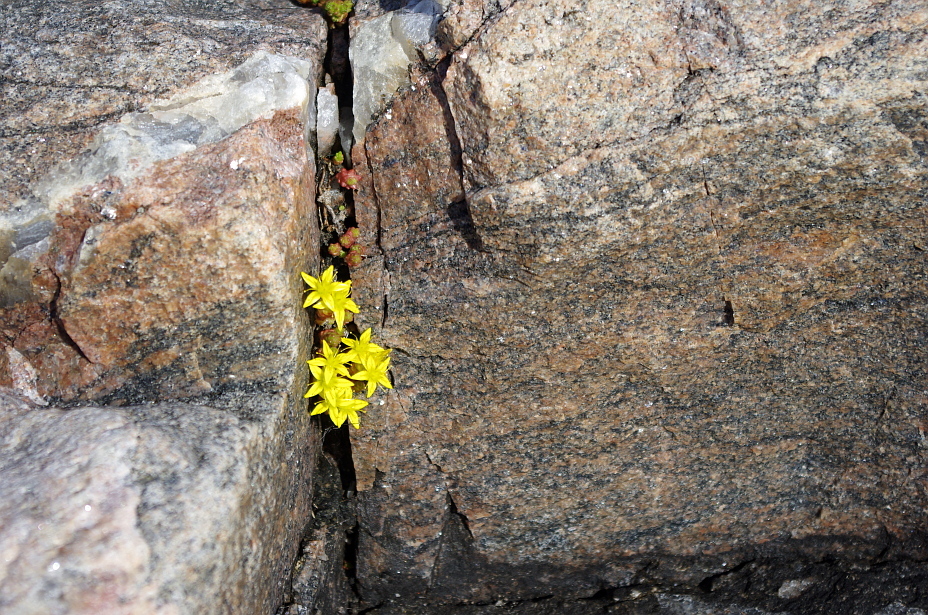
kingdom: Plantae
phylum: Tracheophyta
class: Magnoliopsida
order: Saxifragales
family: Crassulaceae
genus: Sedum
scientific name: Sedum acre
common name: Biting stonecrop
